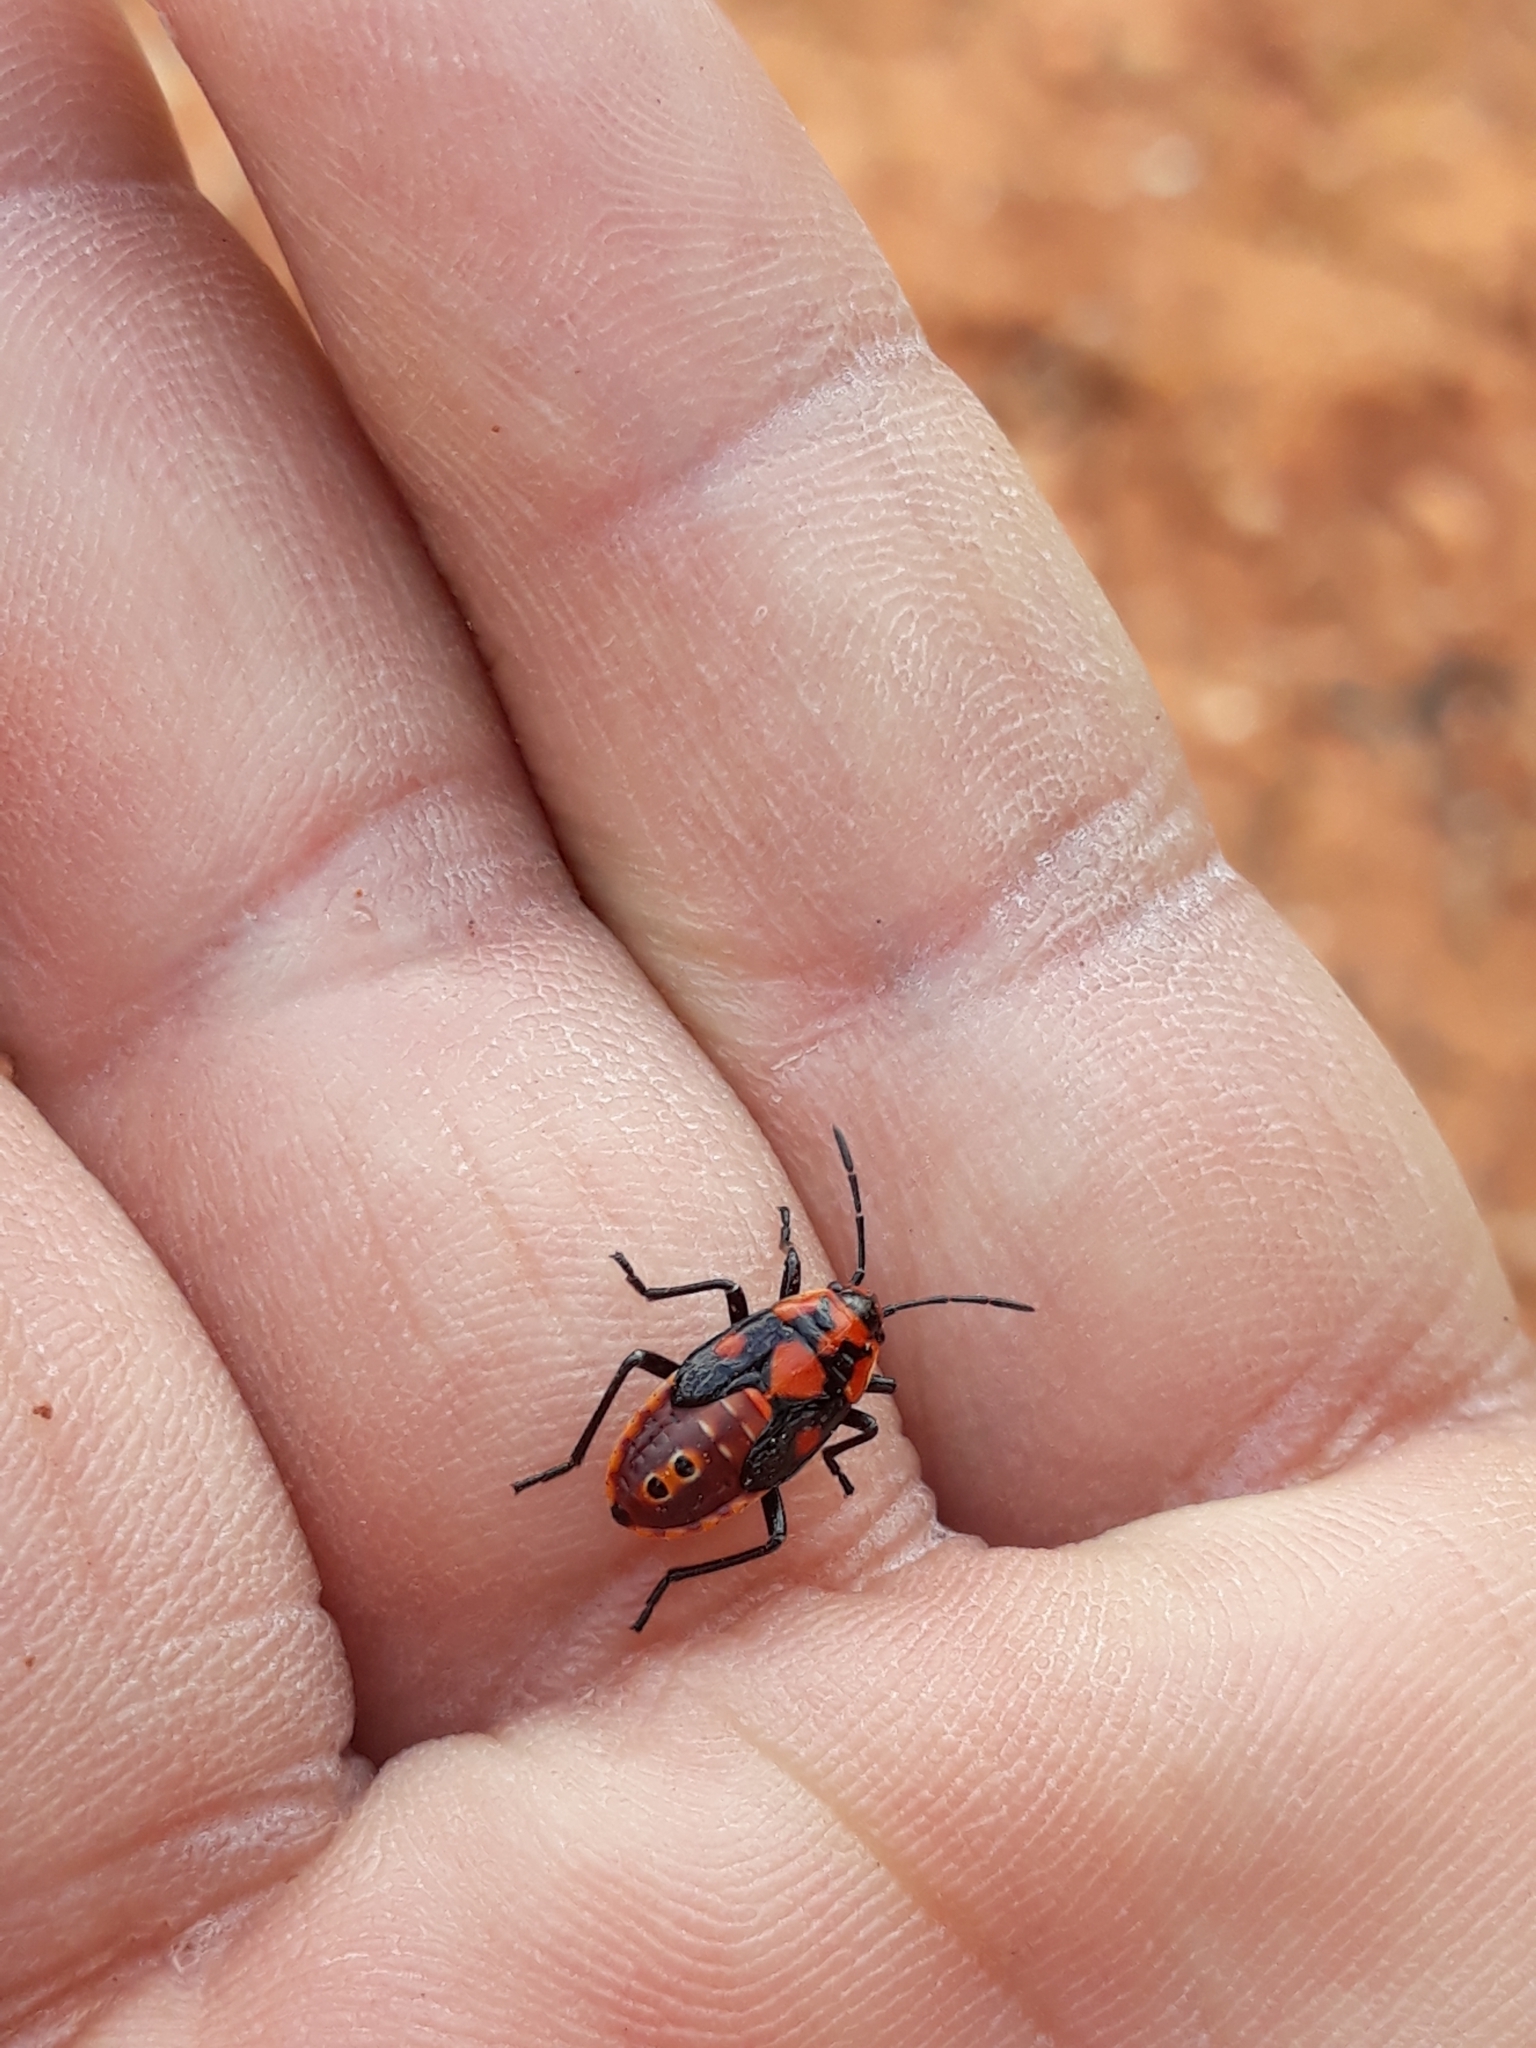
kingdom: Animalia
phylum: Arthropoda
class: Insecta
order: Hemiptera
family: Lygaeidae
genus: Spilostethus
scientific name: Spilostethus pandurus
